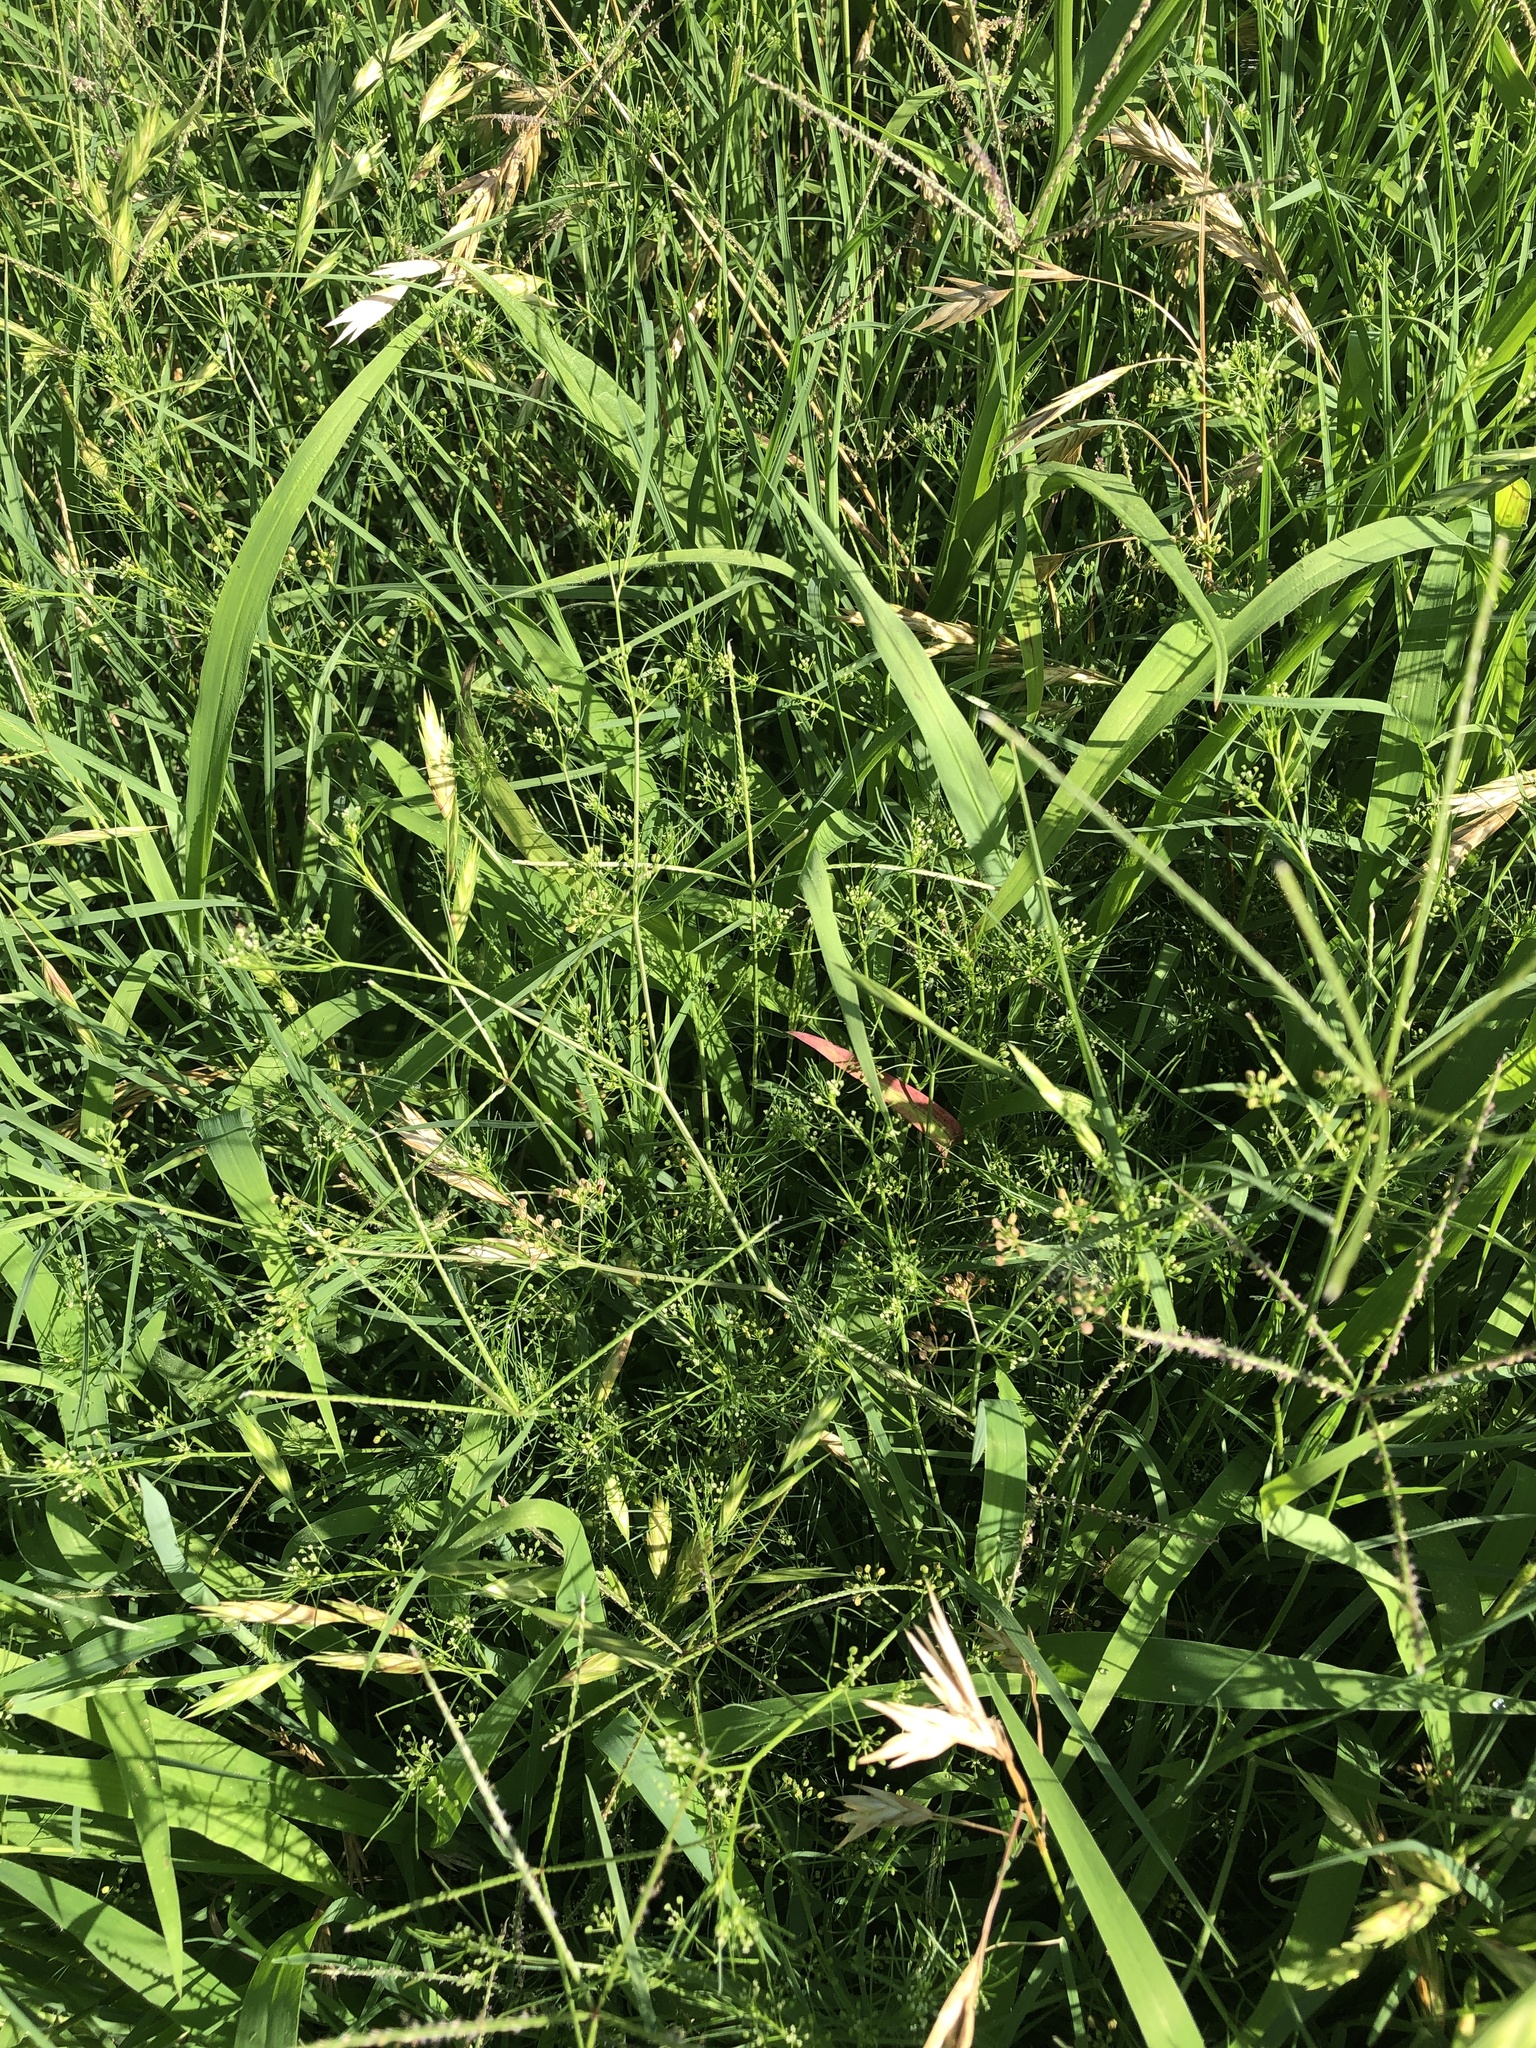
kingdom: Plantae
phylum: Tracheophyta
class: Magnoliopsida
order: Apiales
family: Apiaceae
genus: Cyclospermum
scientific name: Cyclospermum leptophyllum
